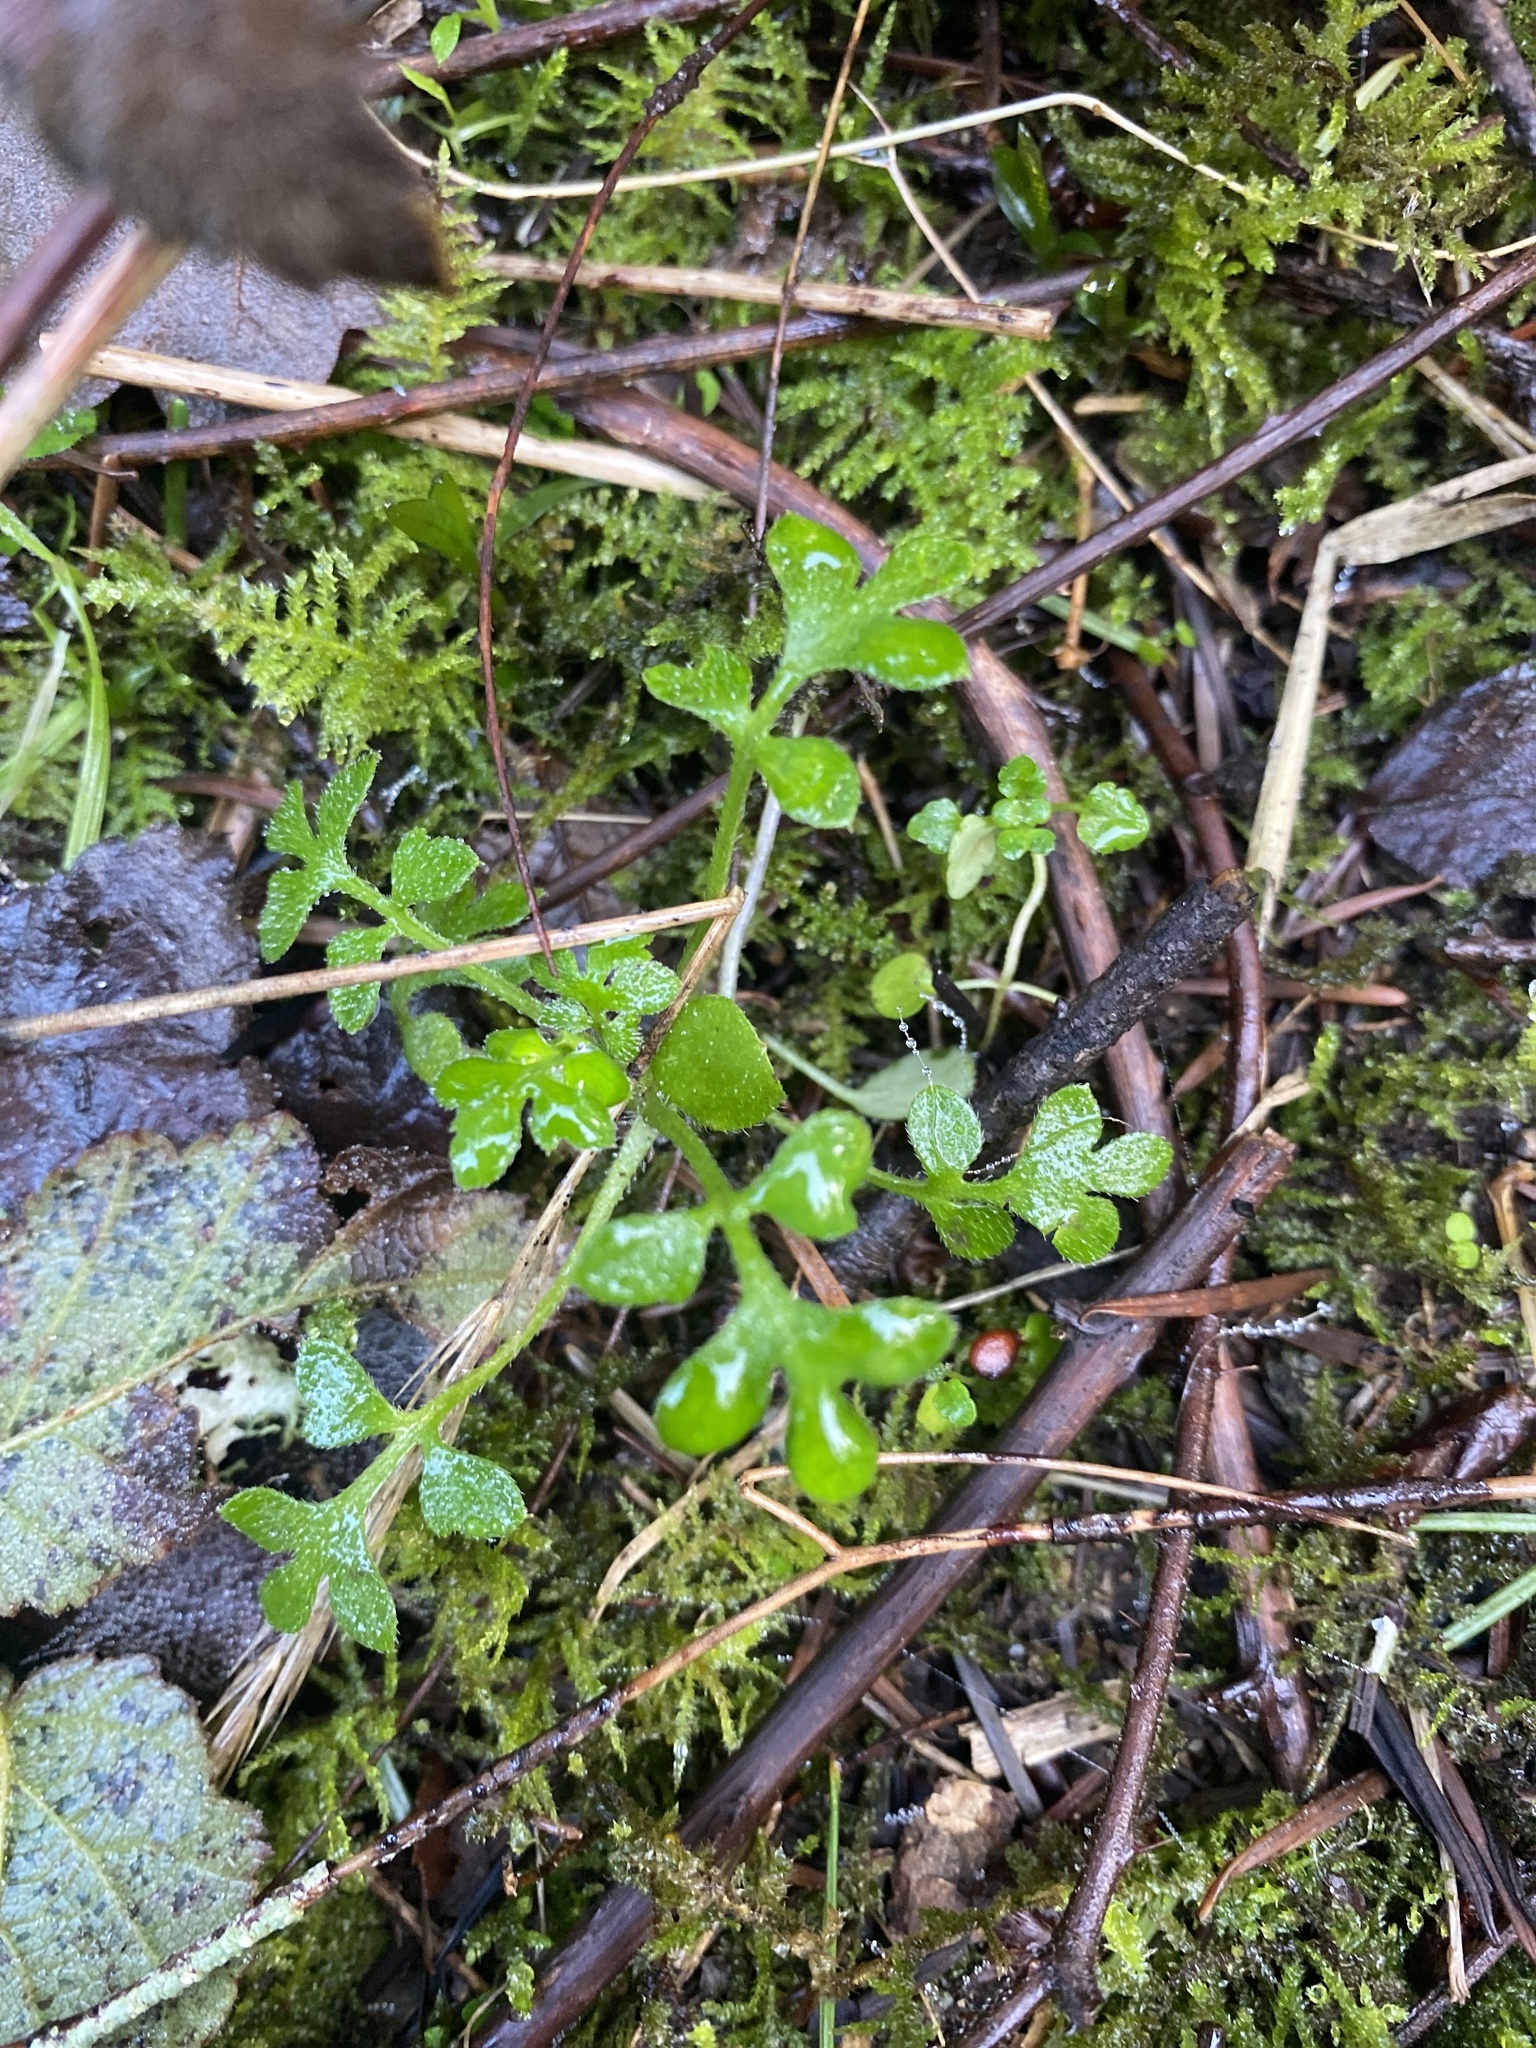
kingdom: Plantae
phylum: Tracheophyta
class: Magnoliopsida
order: Boraginales
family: Hydrophyllaceae
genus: Nemophila
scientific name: Nemophila parviflora
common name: Small-flowered baby-blue-eyes
